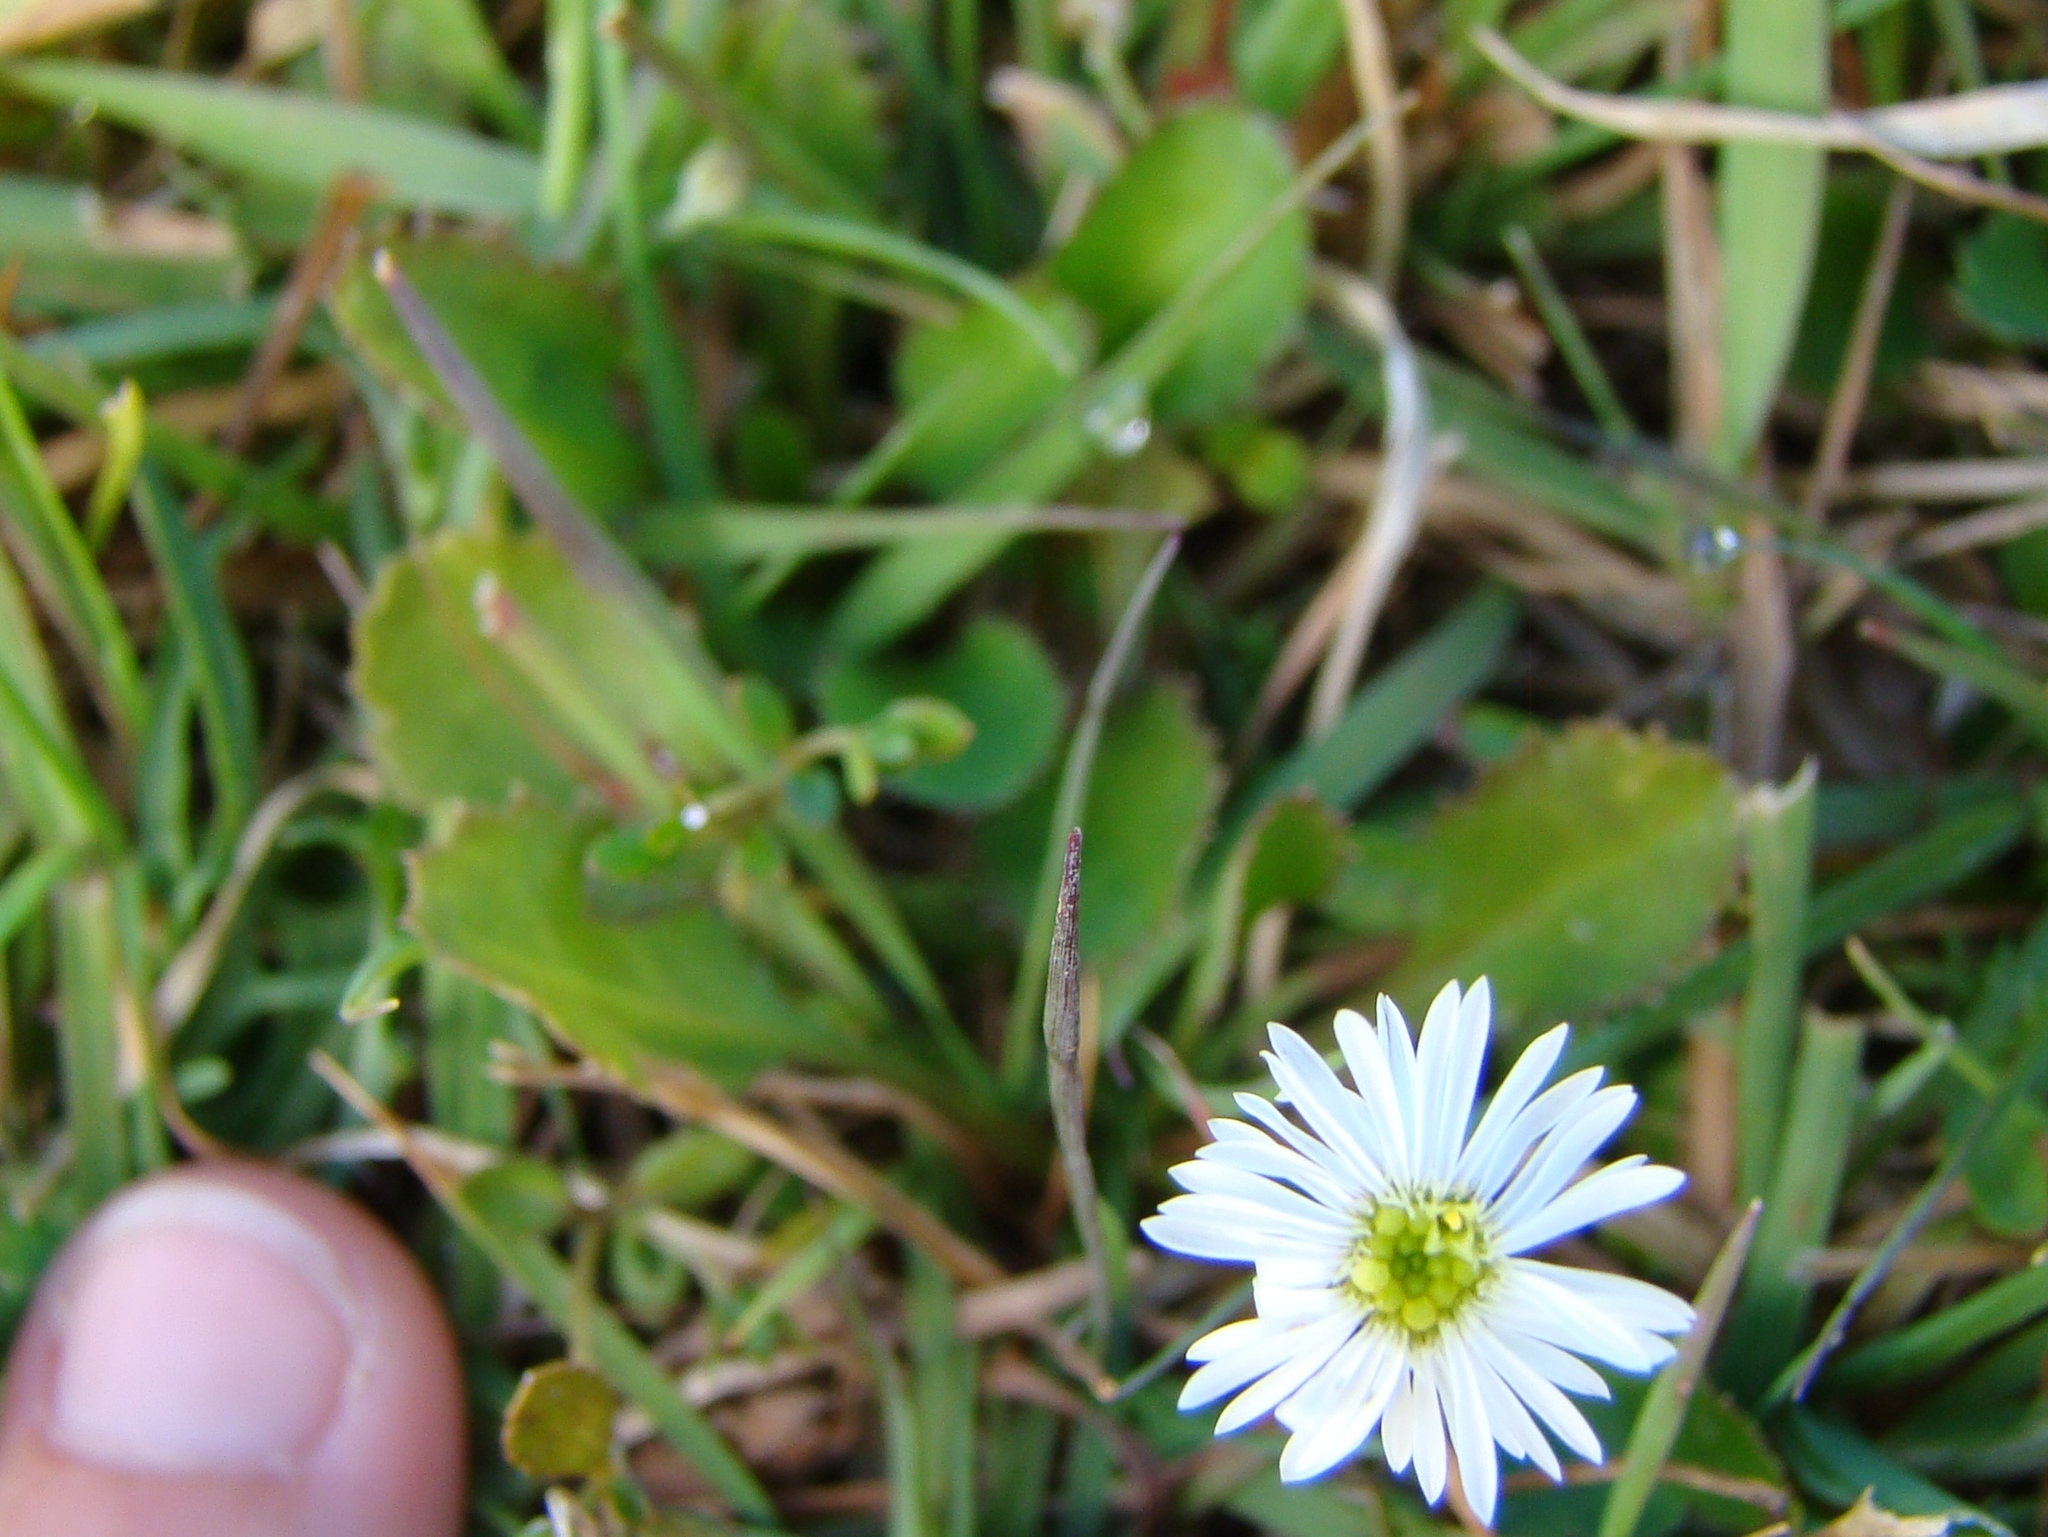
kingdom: Plantae
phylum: Tracheophyta
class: Magnoliopsida
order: Asterales
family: Asteraceae
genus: Lagenophora
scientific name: Lagenophora pumila
